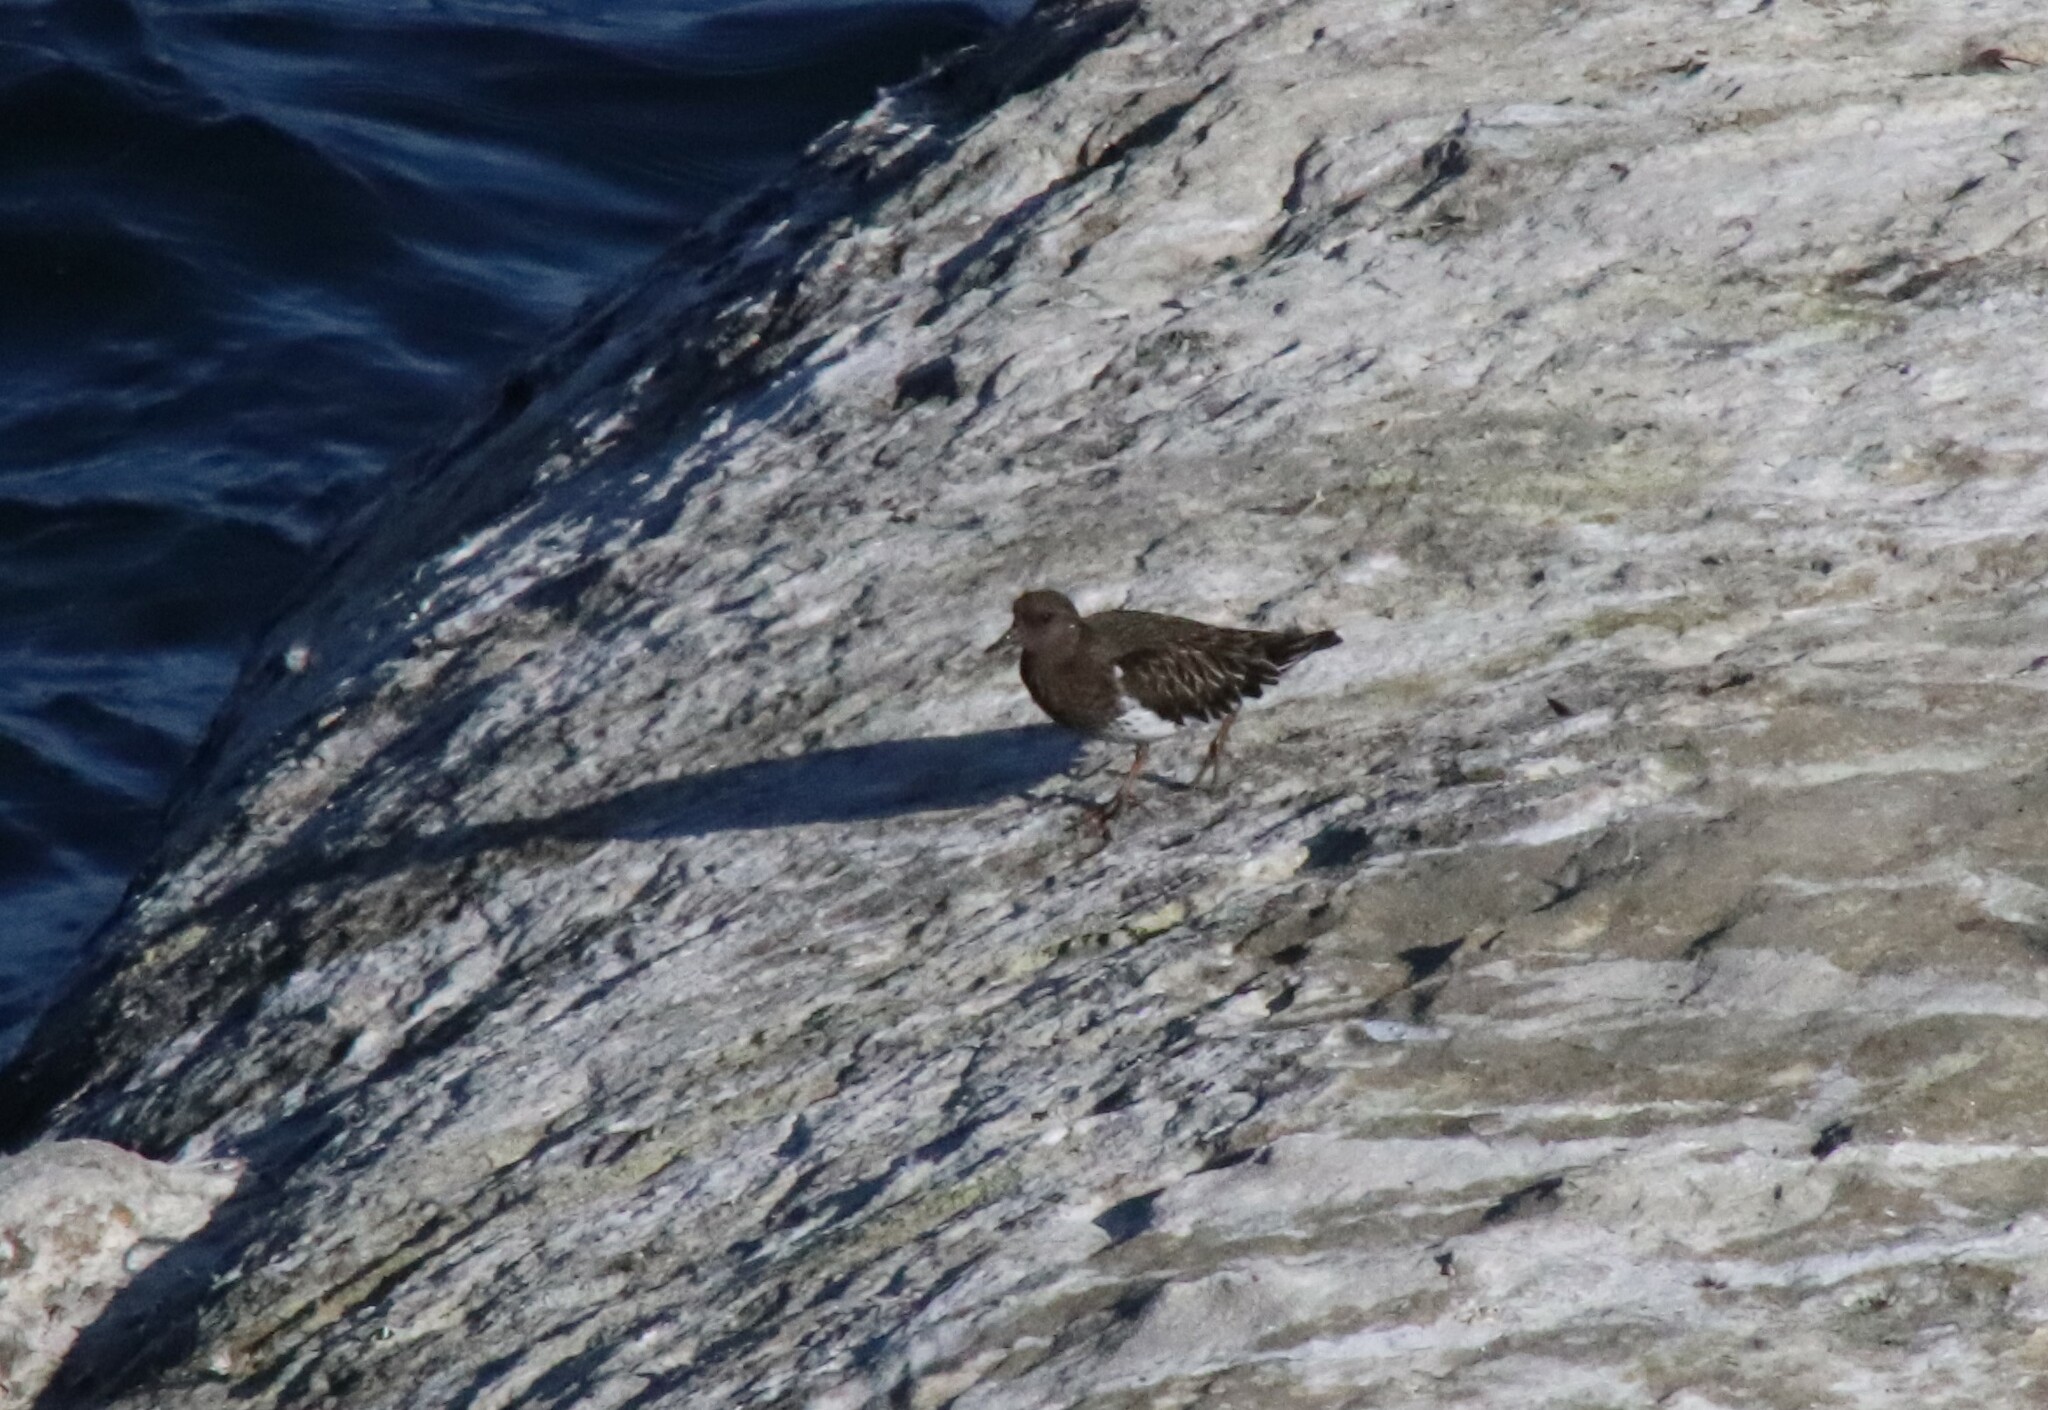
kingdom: Animalia
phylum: Chordata
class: Aves
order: Charadriiformes
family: Scolopacidae
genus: Arenaria
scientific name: Arenaria melanocephala
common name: Black turnstone
